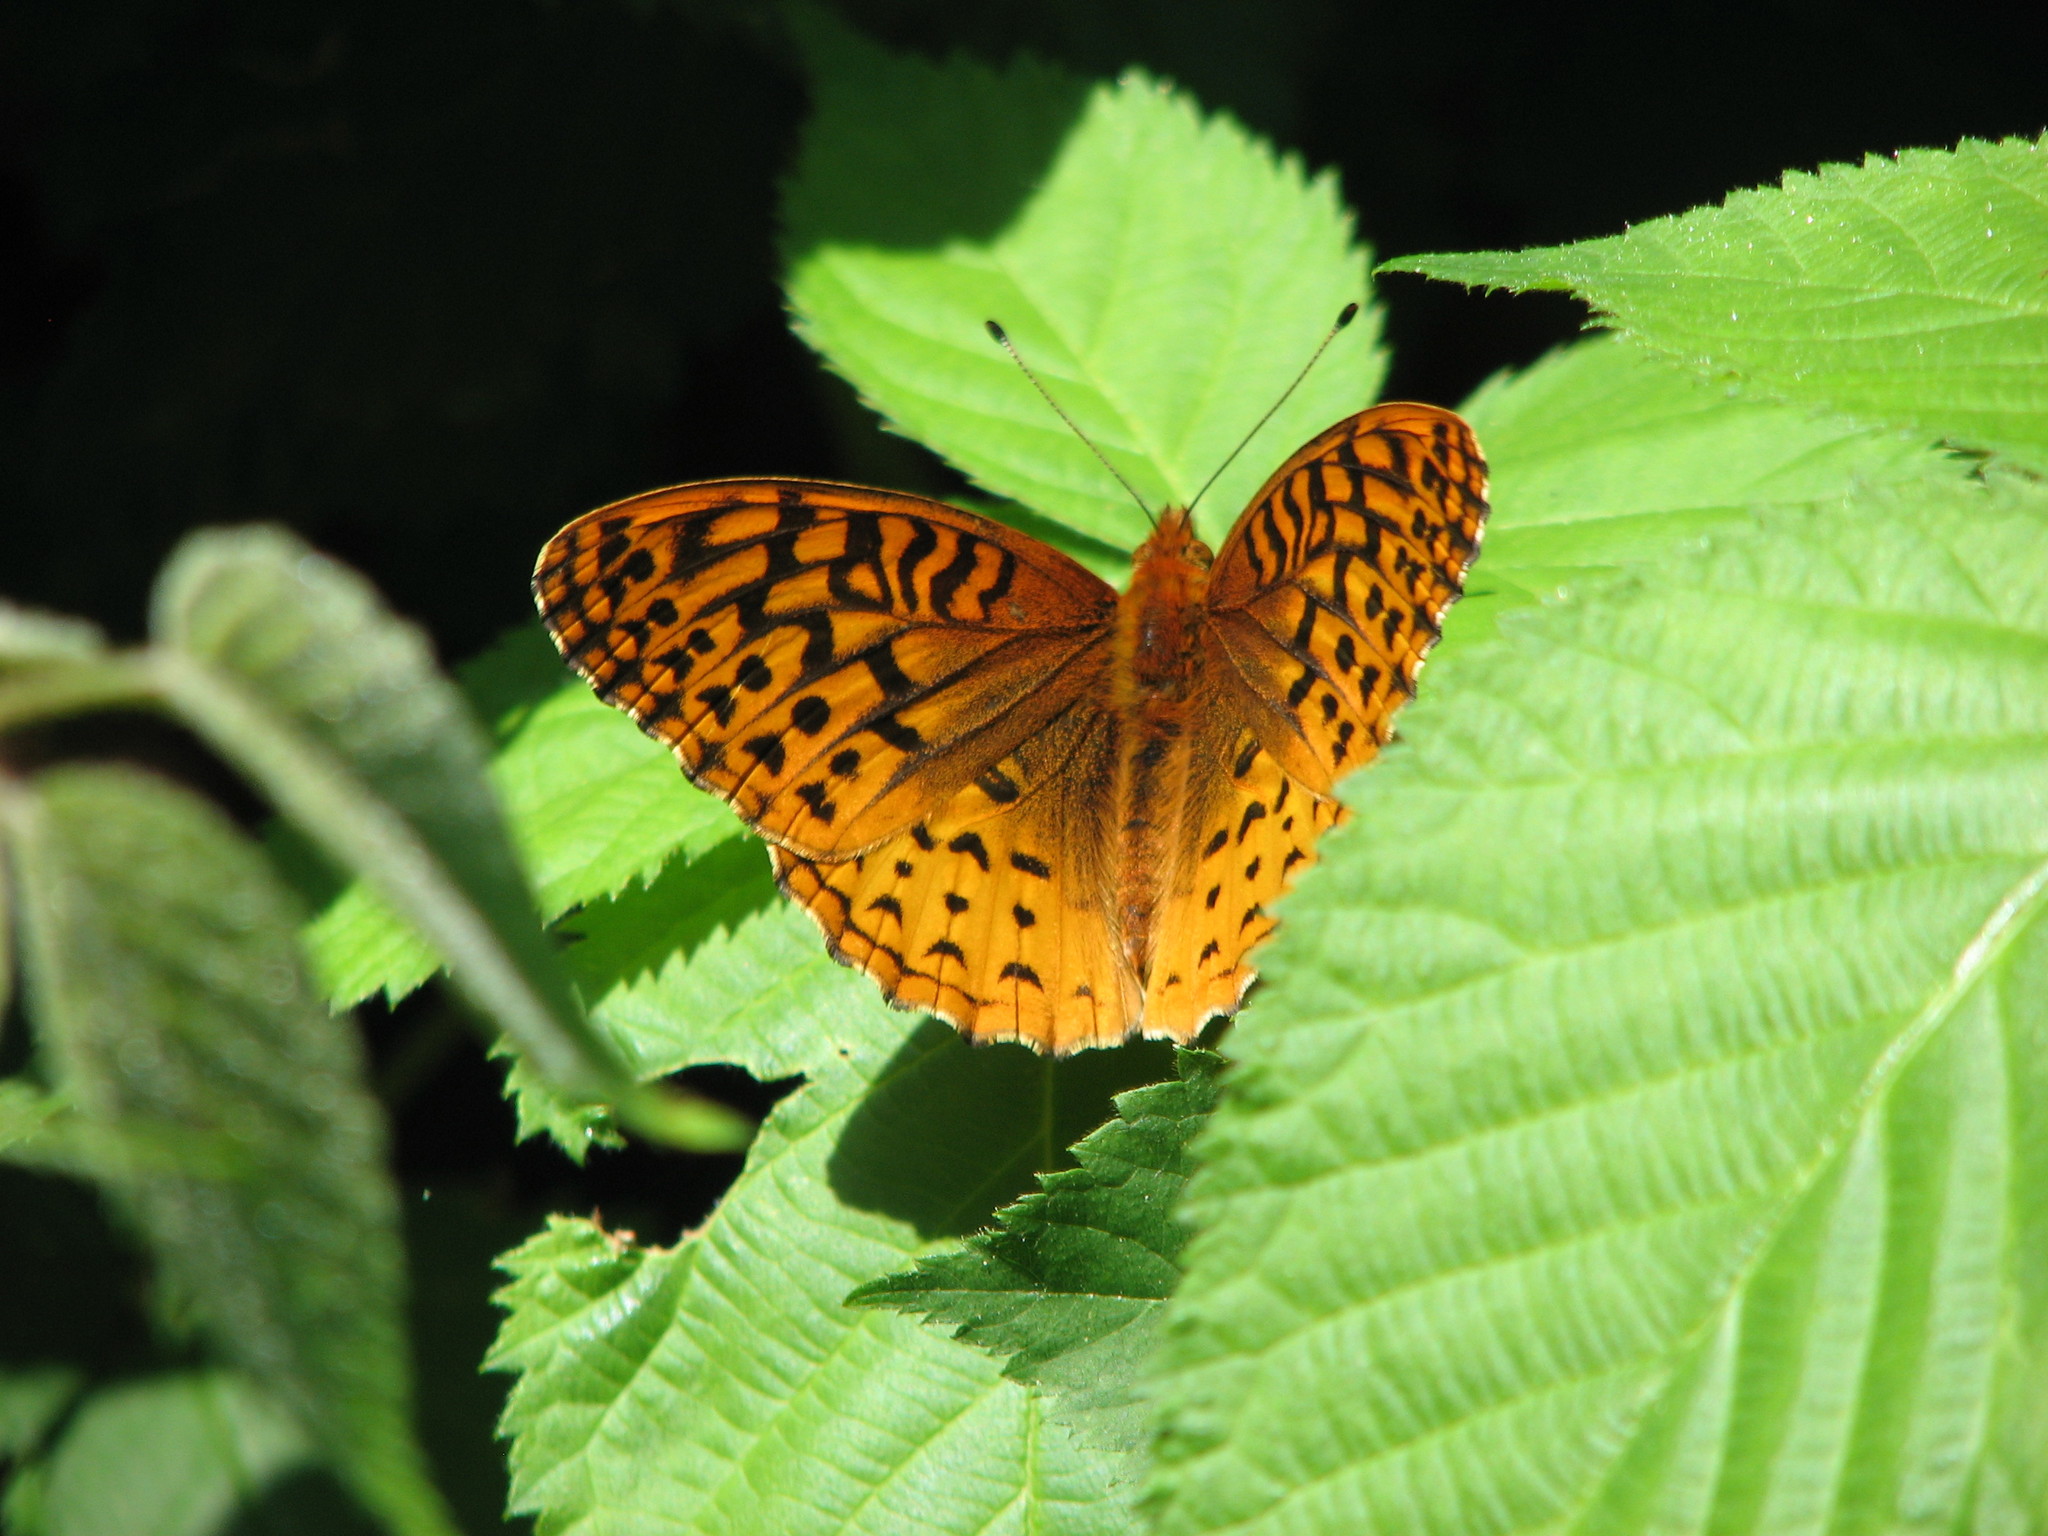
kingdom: Animalia
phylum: Arthropoda
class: Insecta
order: Lepidoptera
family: Nymphalidae
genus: Speyeria
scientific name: Speyeria cybele
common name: Great spangled fritillary
